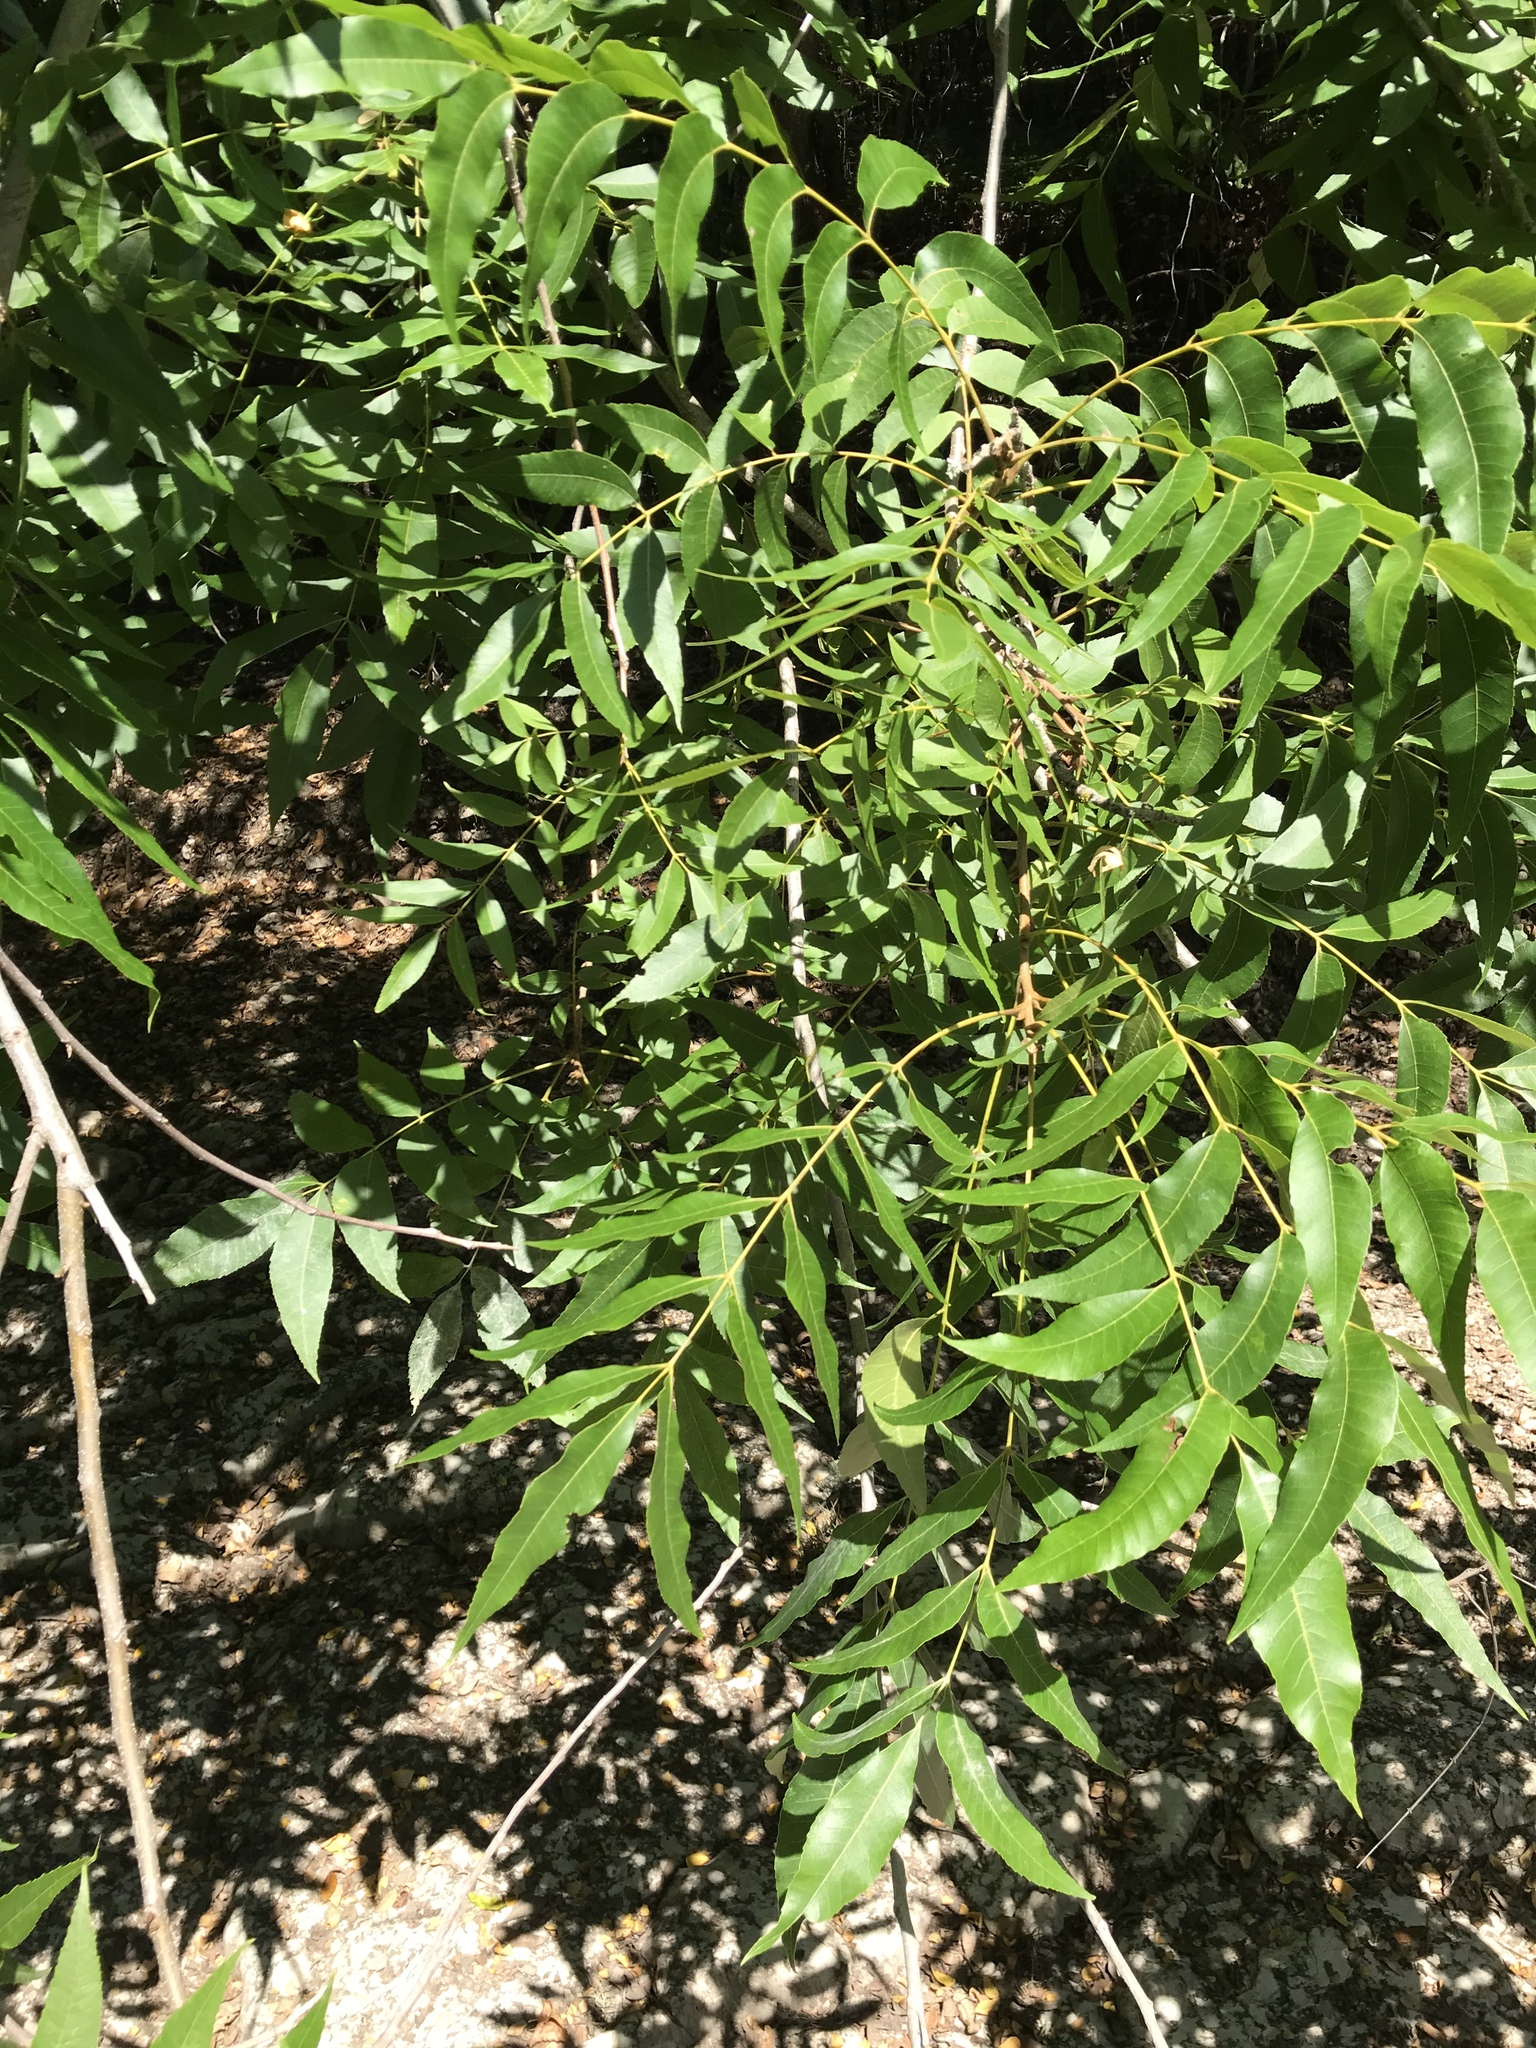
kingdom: Plantae
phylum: Tracheophyta
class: Magnoliopsida
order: Sapindales
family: Sapindaceae
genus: Sapindus
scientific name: Sapindus drummondii
